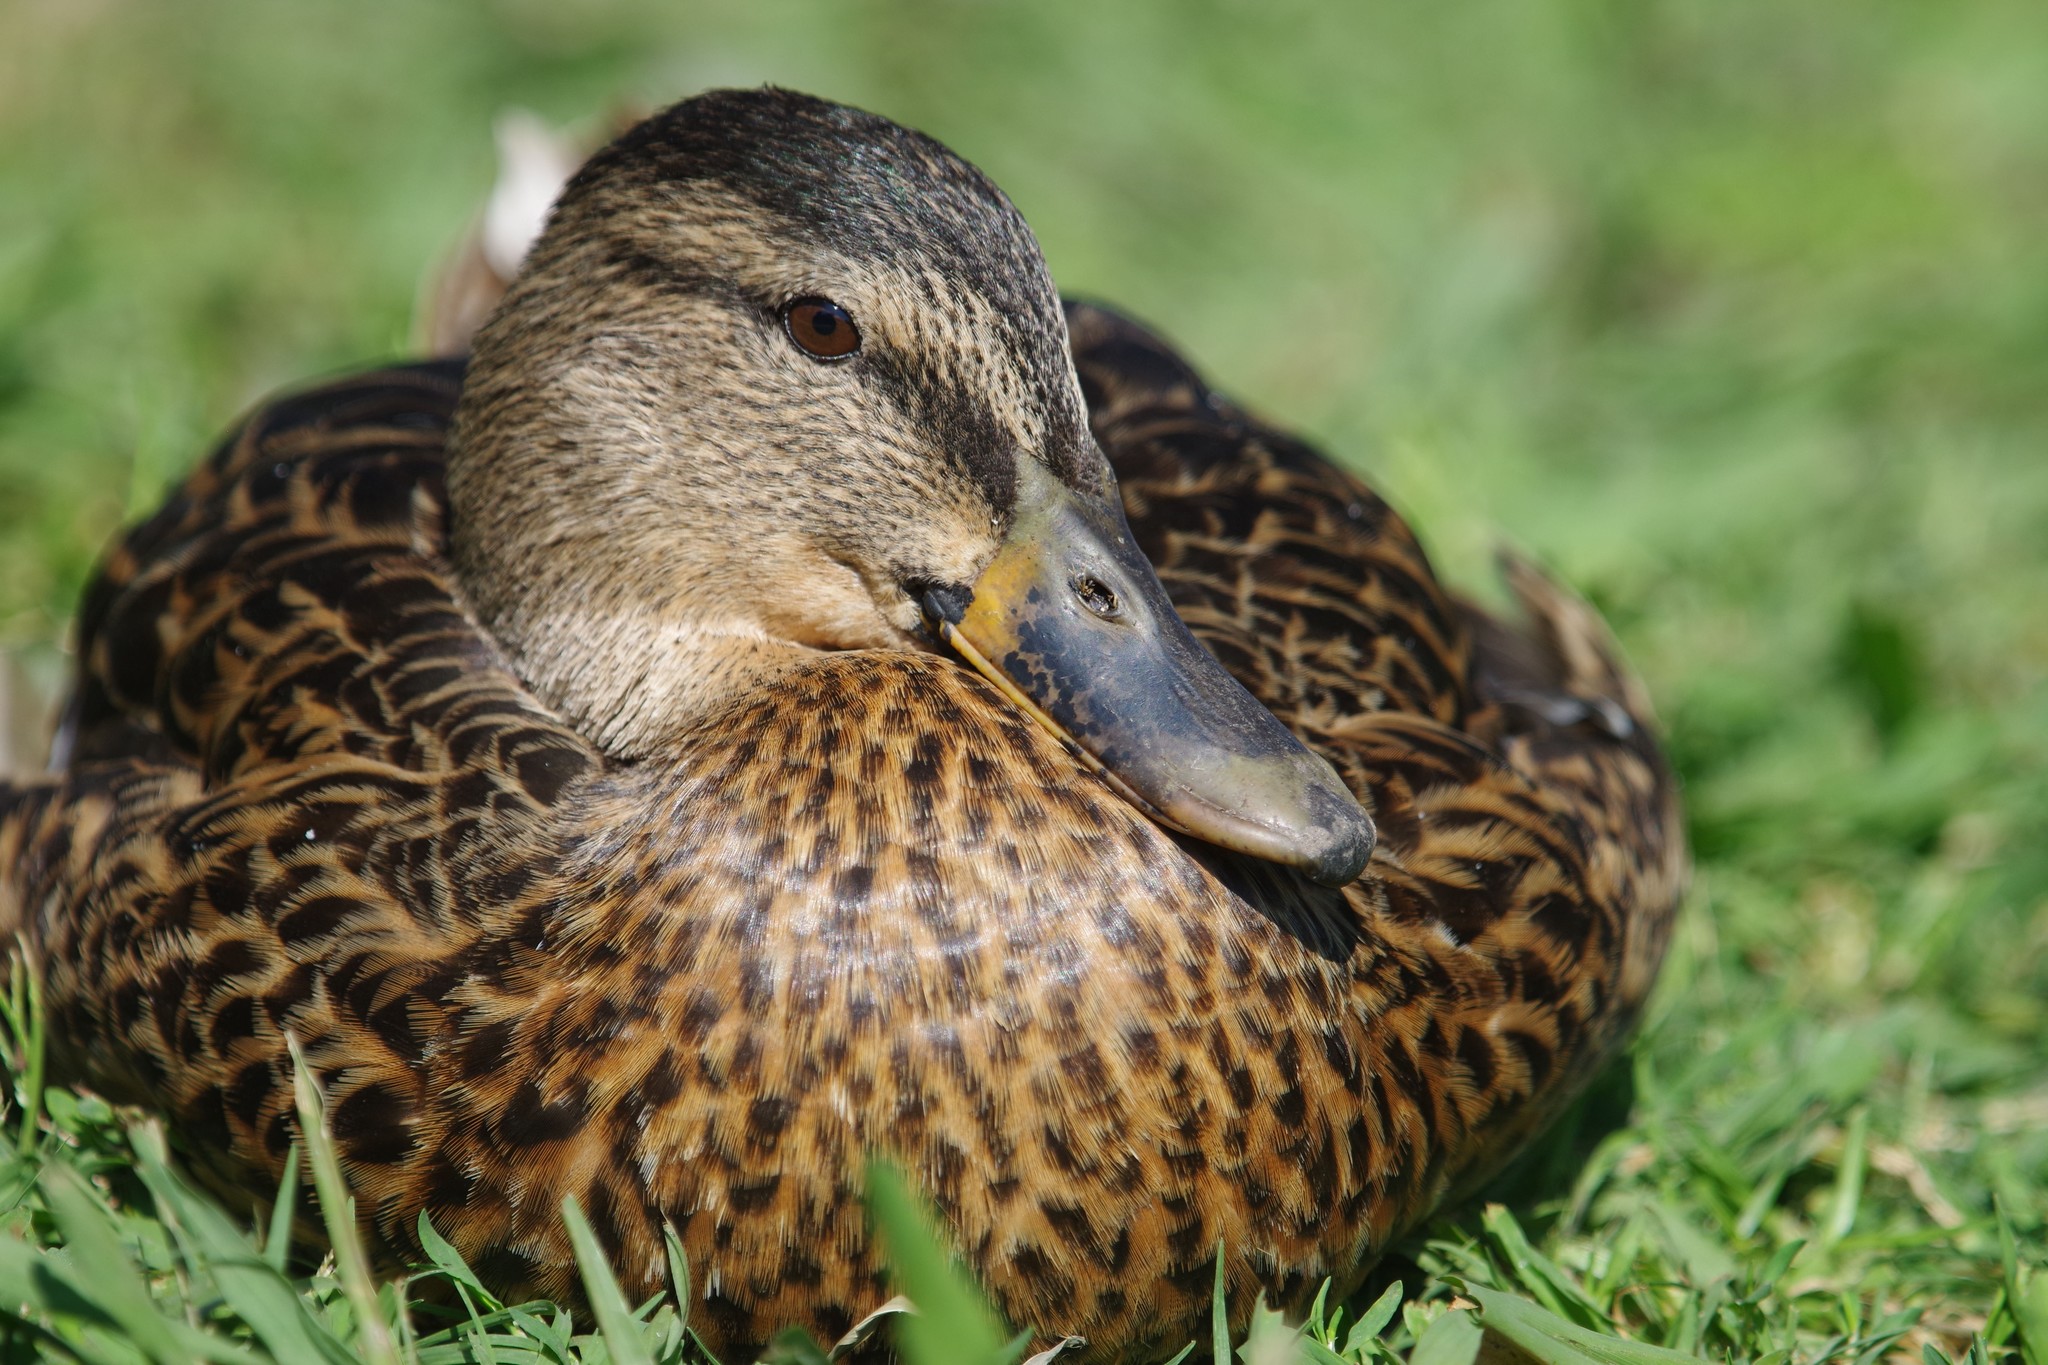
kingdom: Animalia
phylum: Chordata
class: Aves
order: Anseriformes
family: Anatidae
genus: Anas
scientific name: Anas platyrhynchos
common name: Mallard
